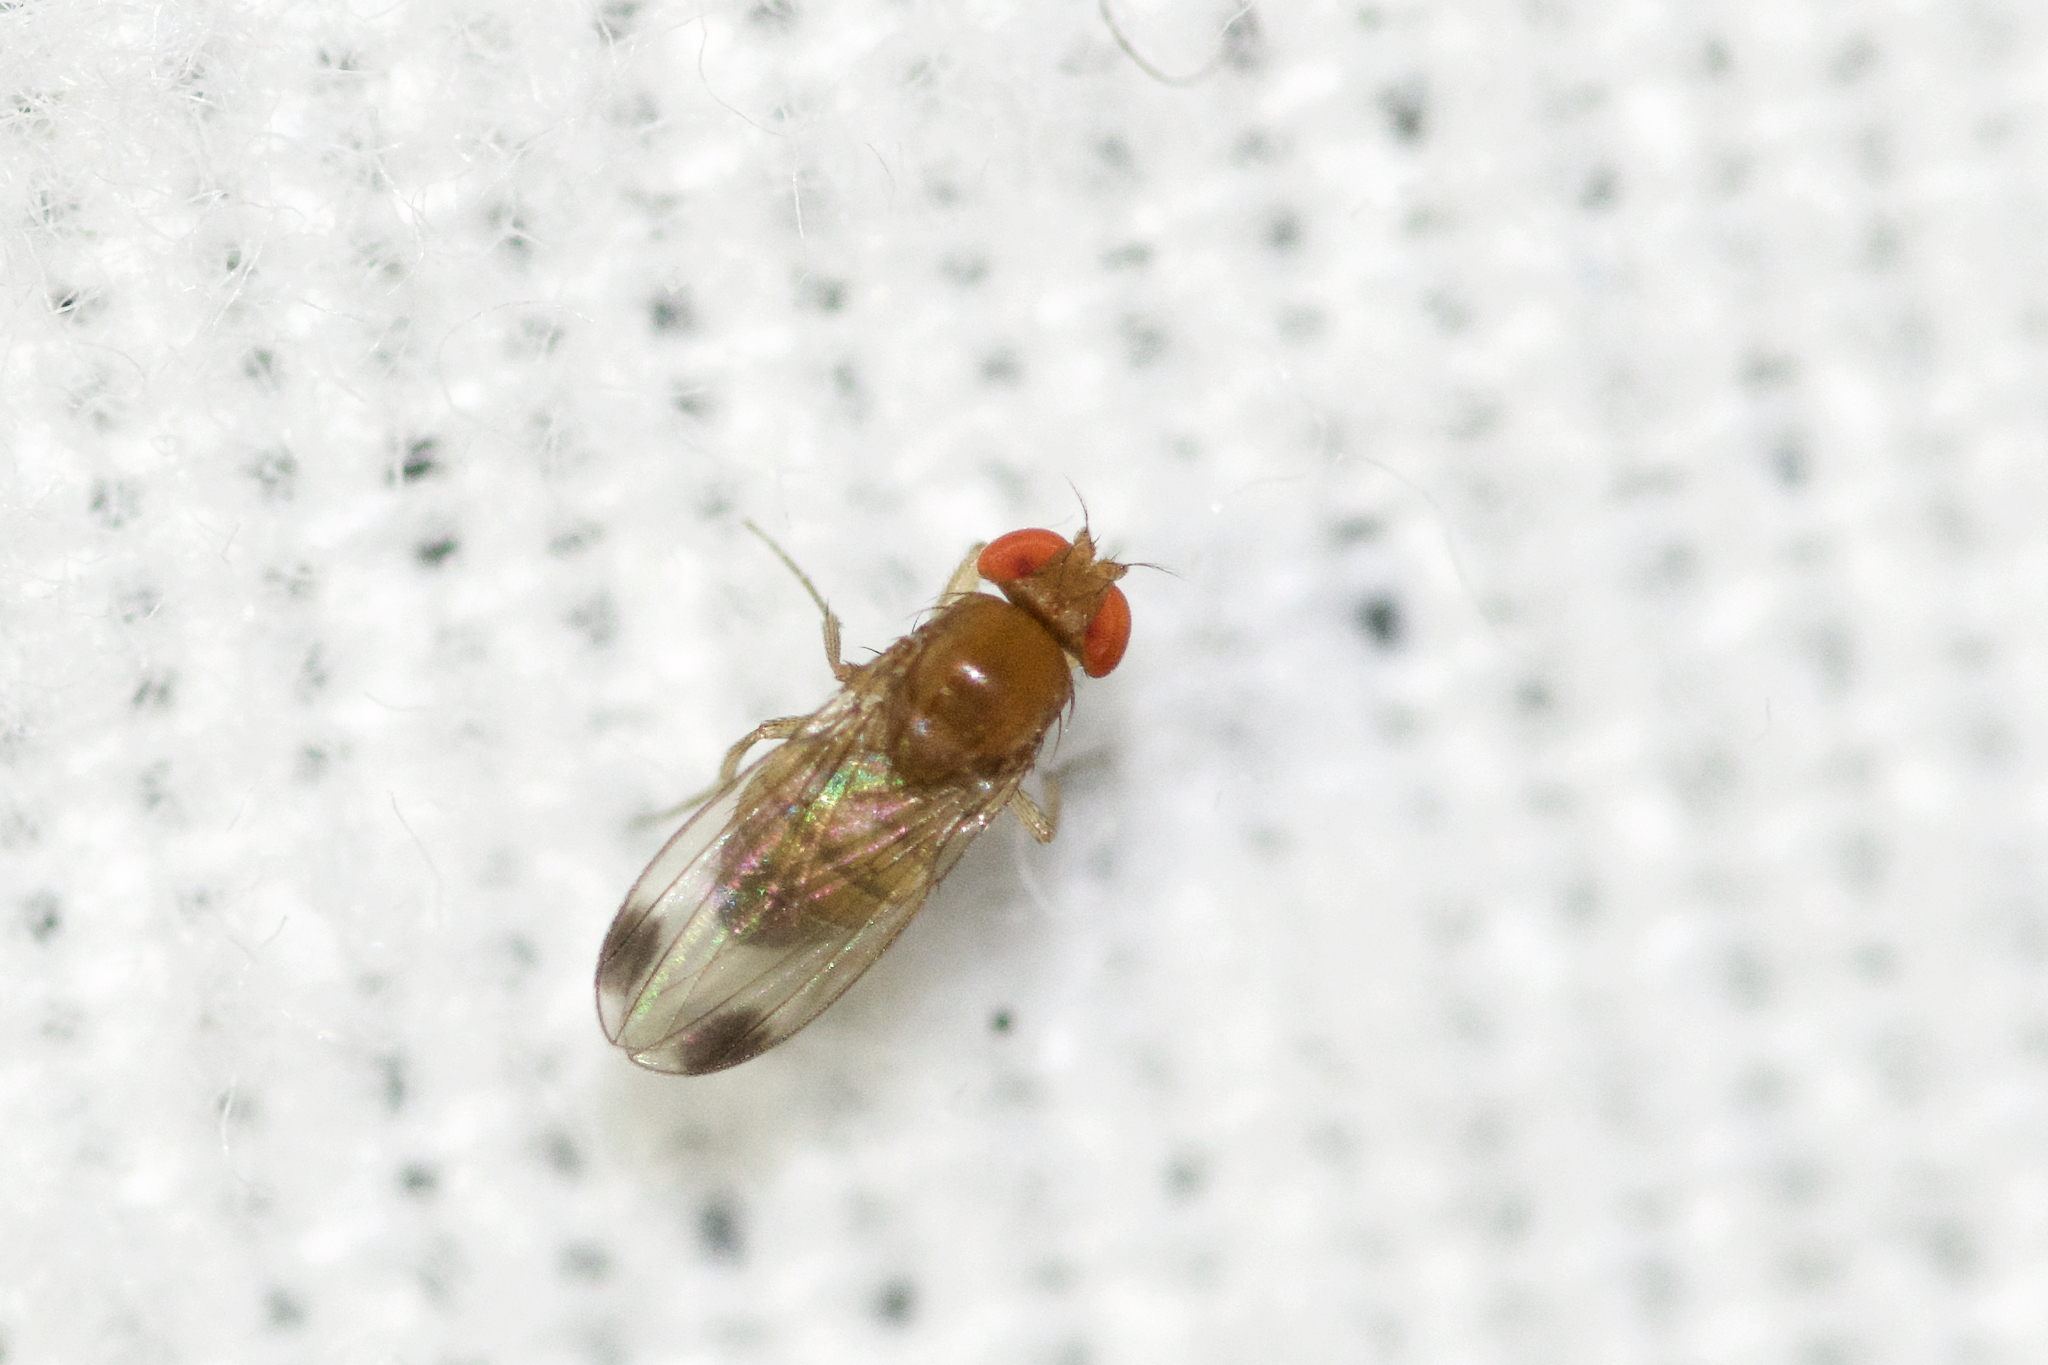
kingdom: Animalia
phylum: Arthropoda
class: Insecta
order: Diptera
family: Drosophilidae
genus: Drosophila
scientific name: Drosophila suzukii
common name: Spotted-wing drosophila
